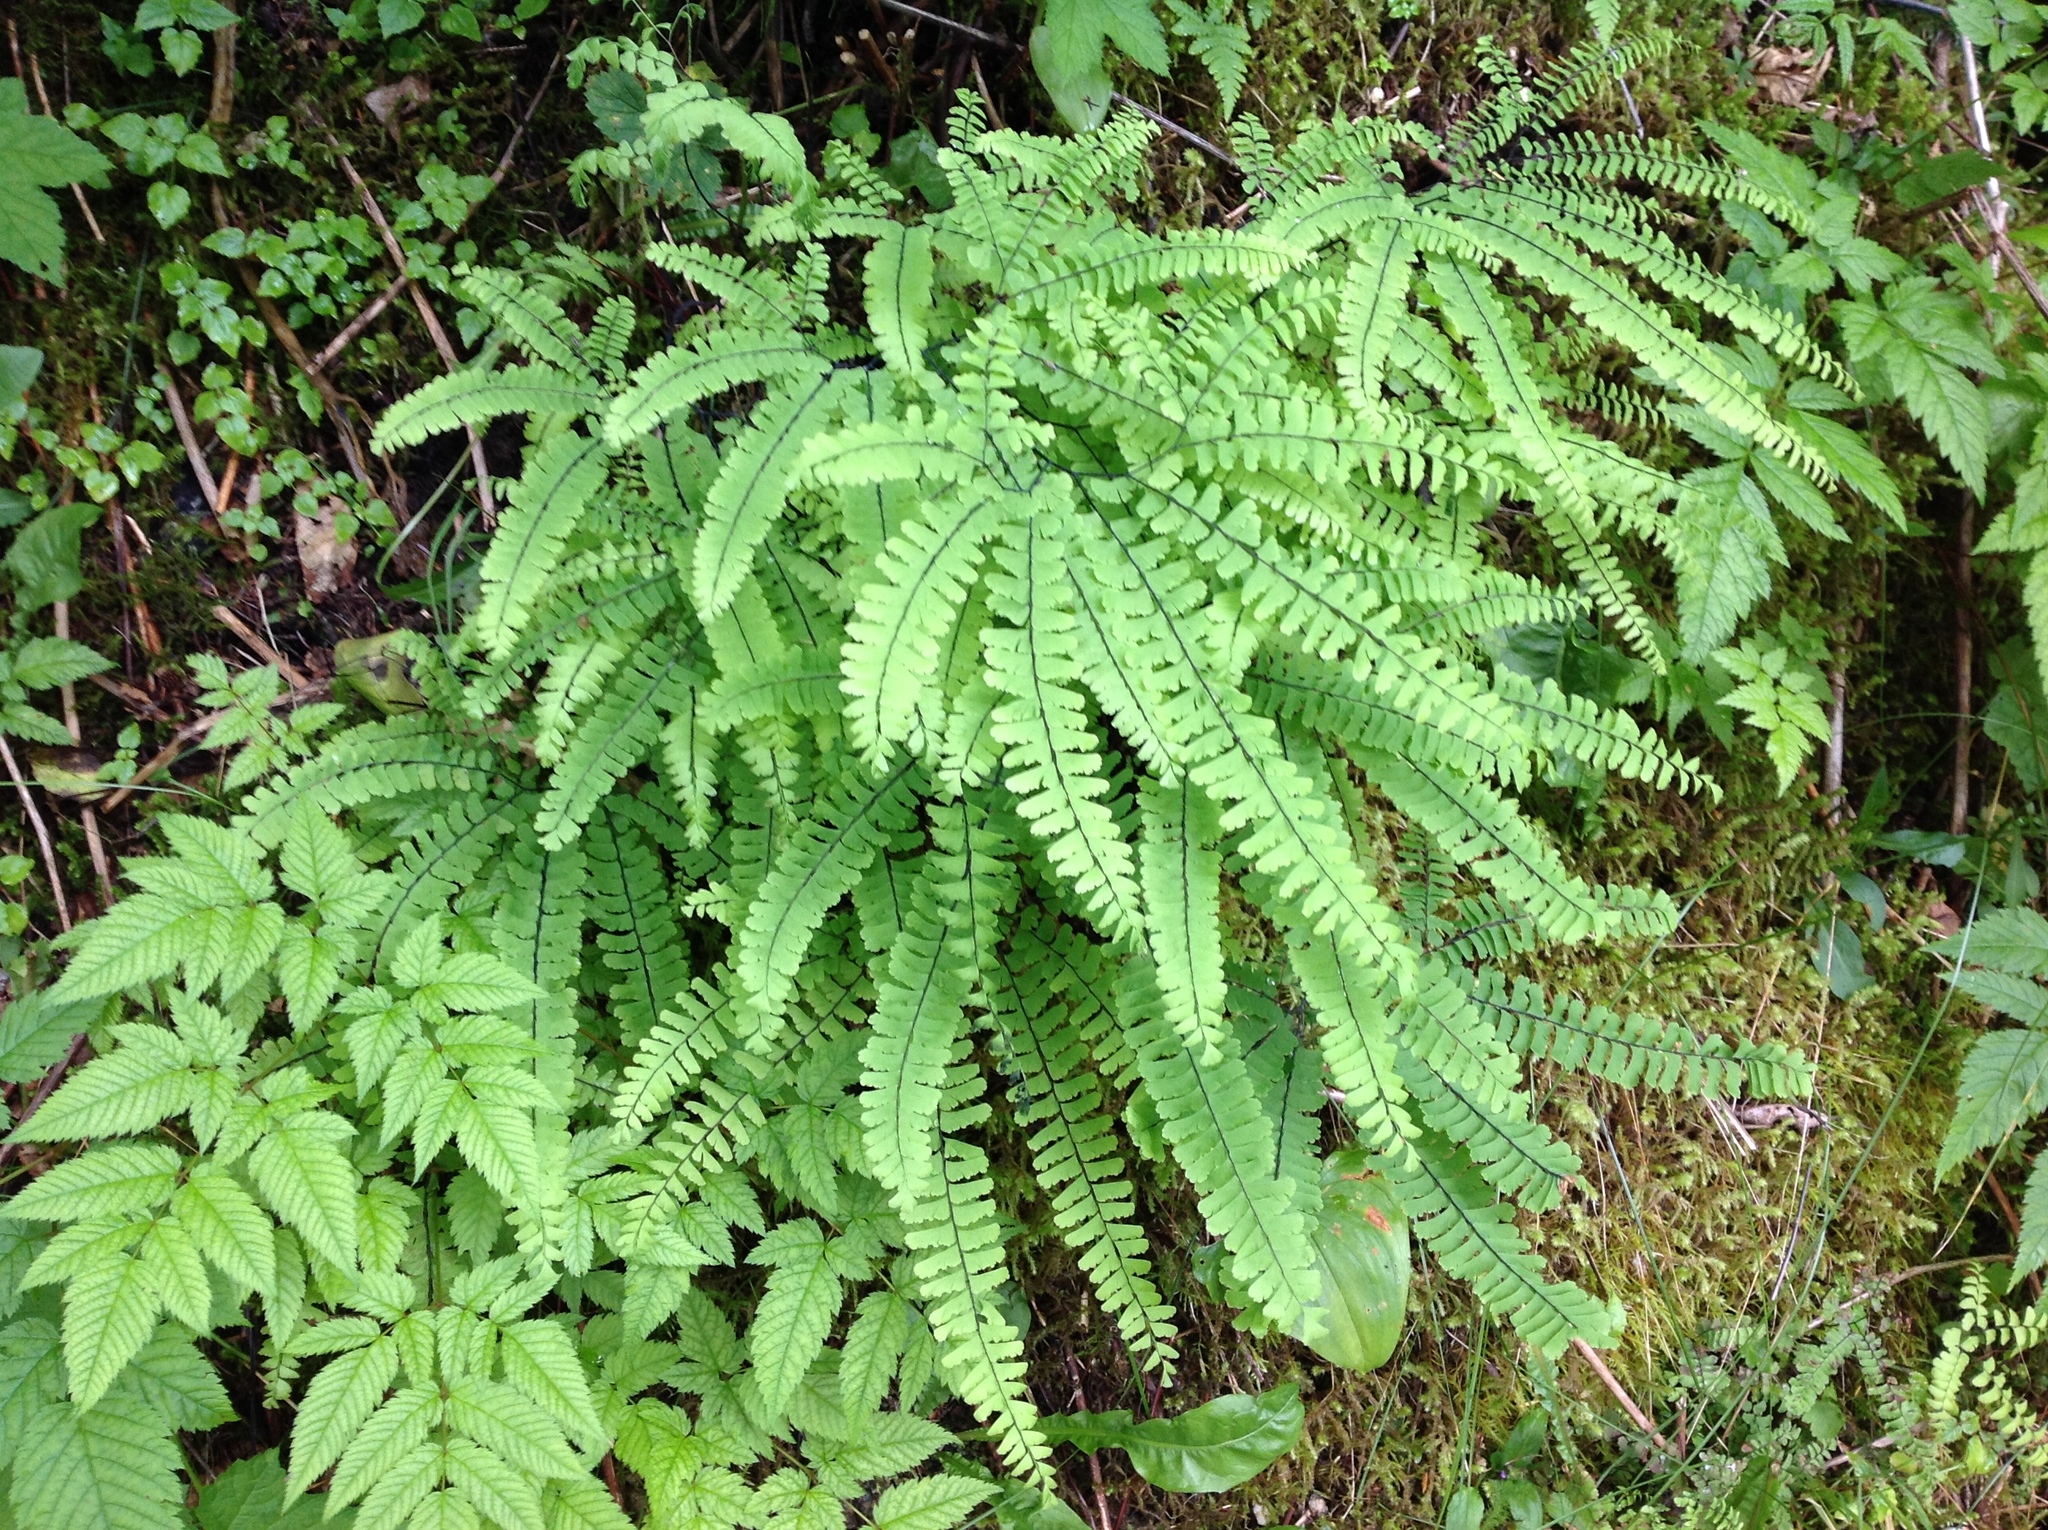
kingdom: Plantae
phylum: Tracheophyta
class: Polypodiopsida
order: Polypodiales
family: Pteridaceae
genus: Adiantum
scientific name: Adiantum aleuticum
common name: Aleutian maidenhair fern
